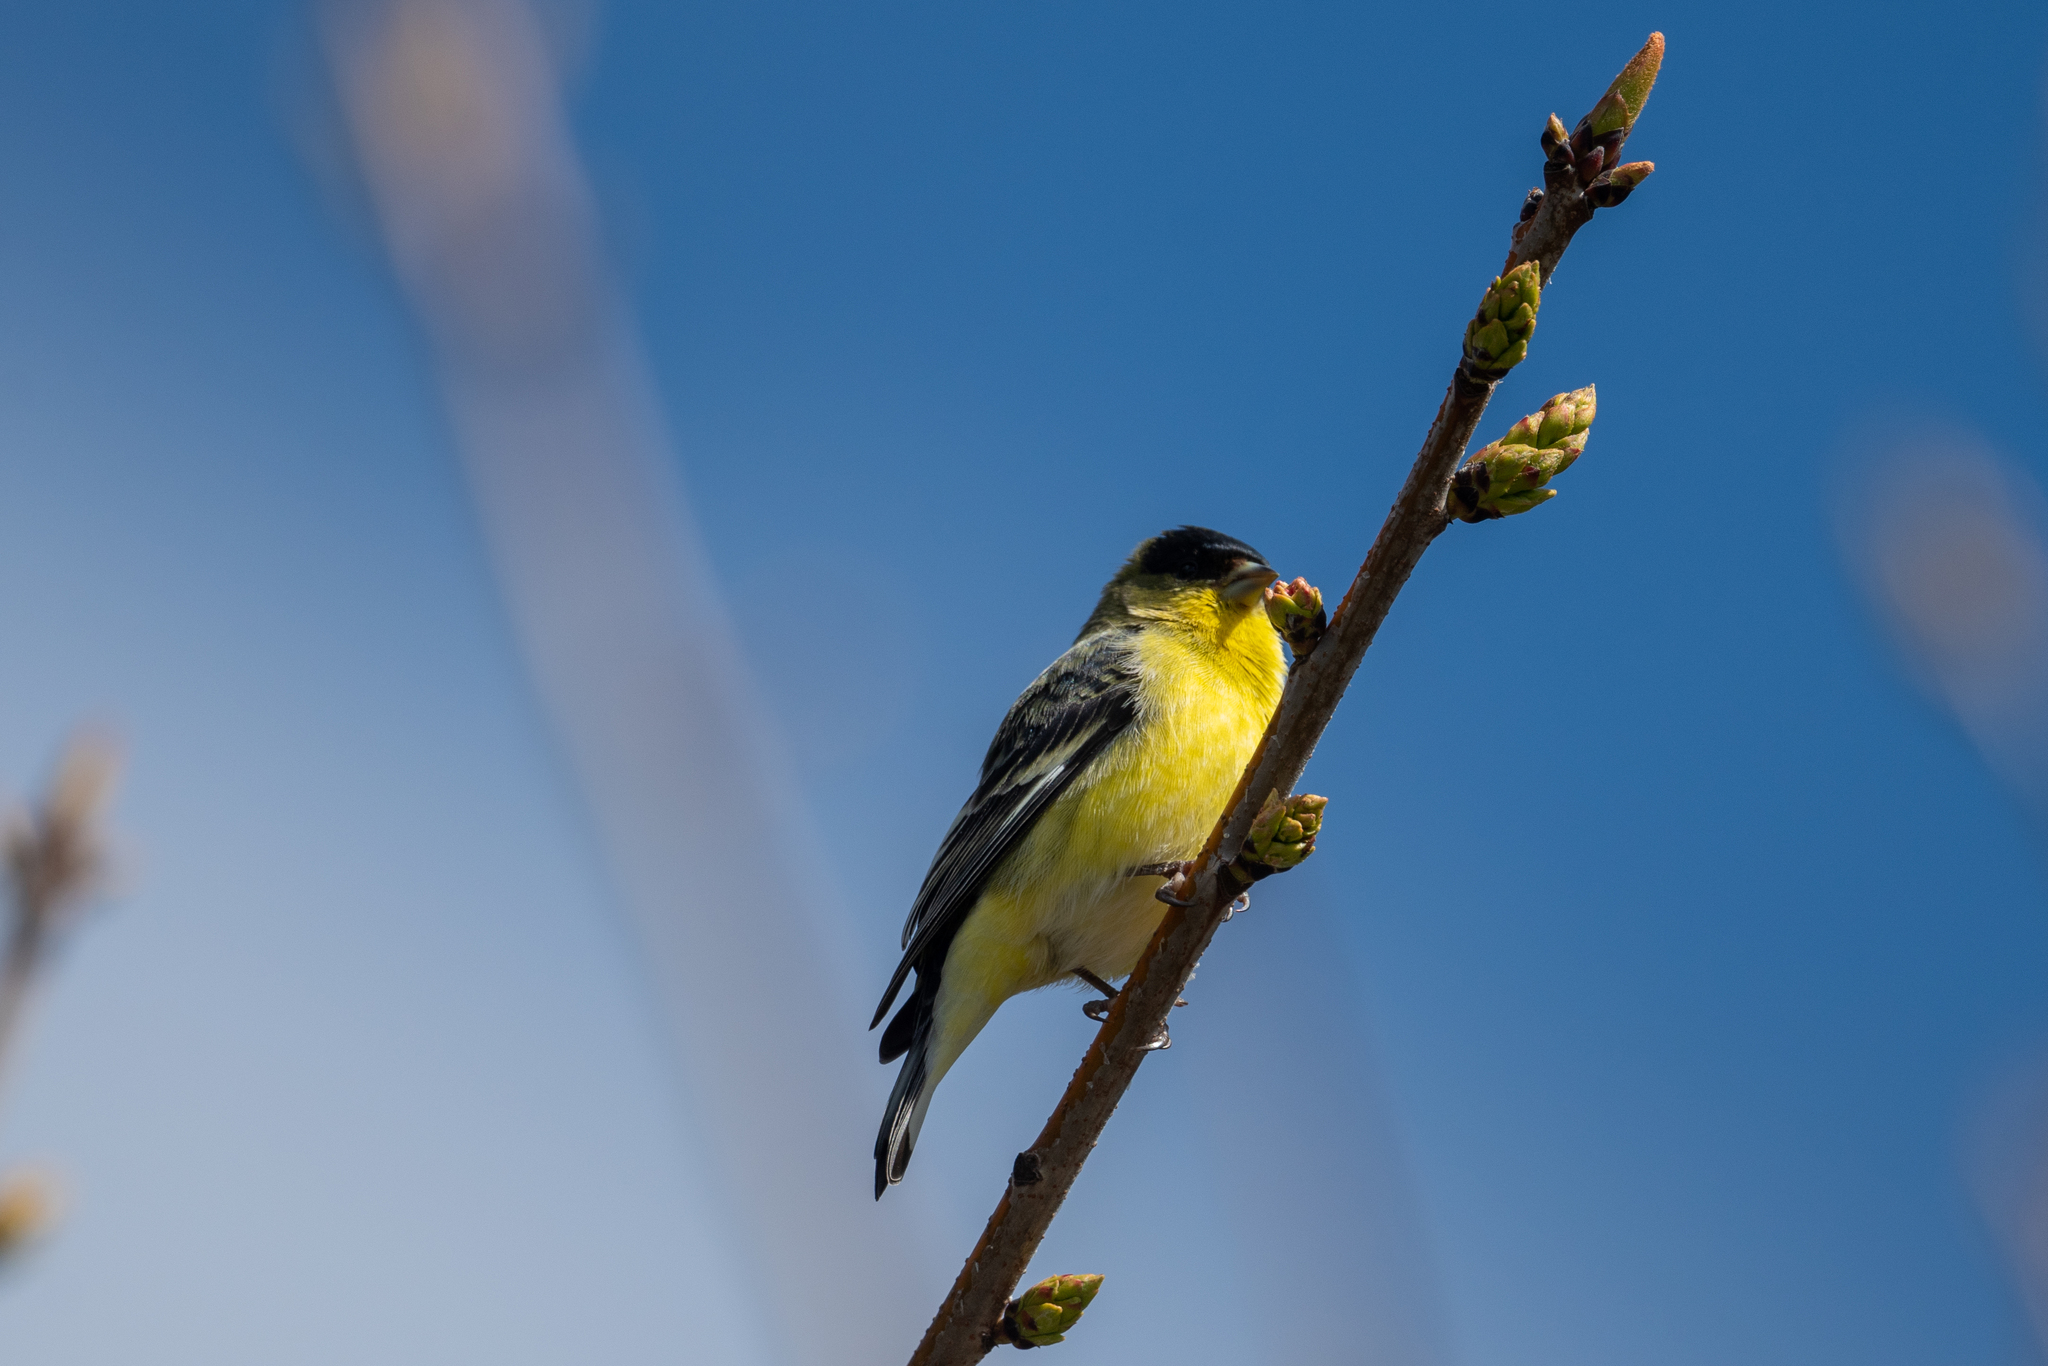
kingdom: Animalia
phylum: Chordata
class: Aves
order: Passeriformes
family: Fringillidae
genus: Spinus
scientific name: Spinus psaltria
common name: Lesser goldfinch
